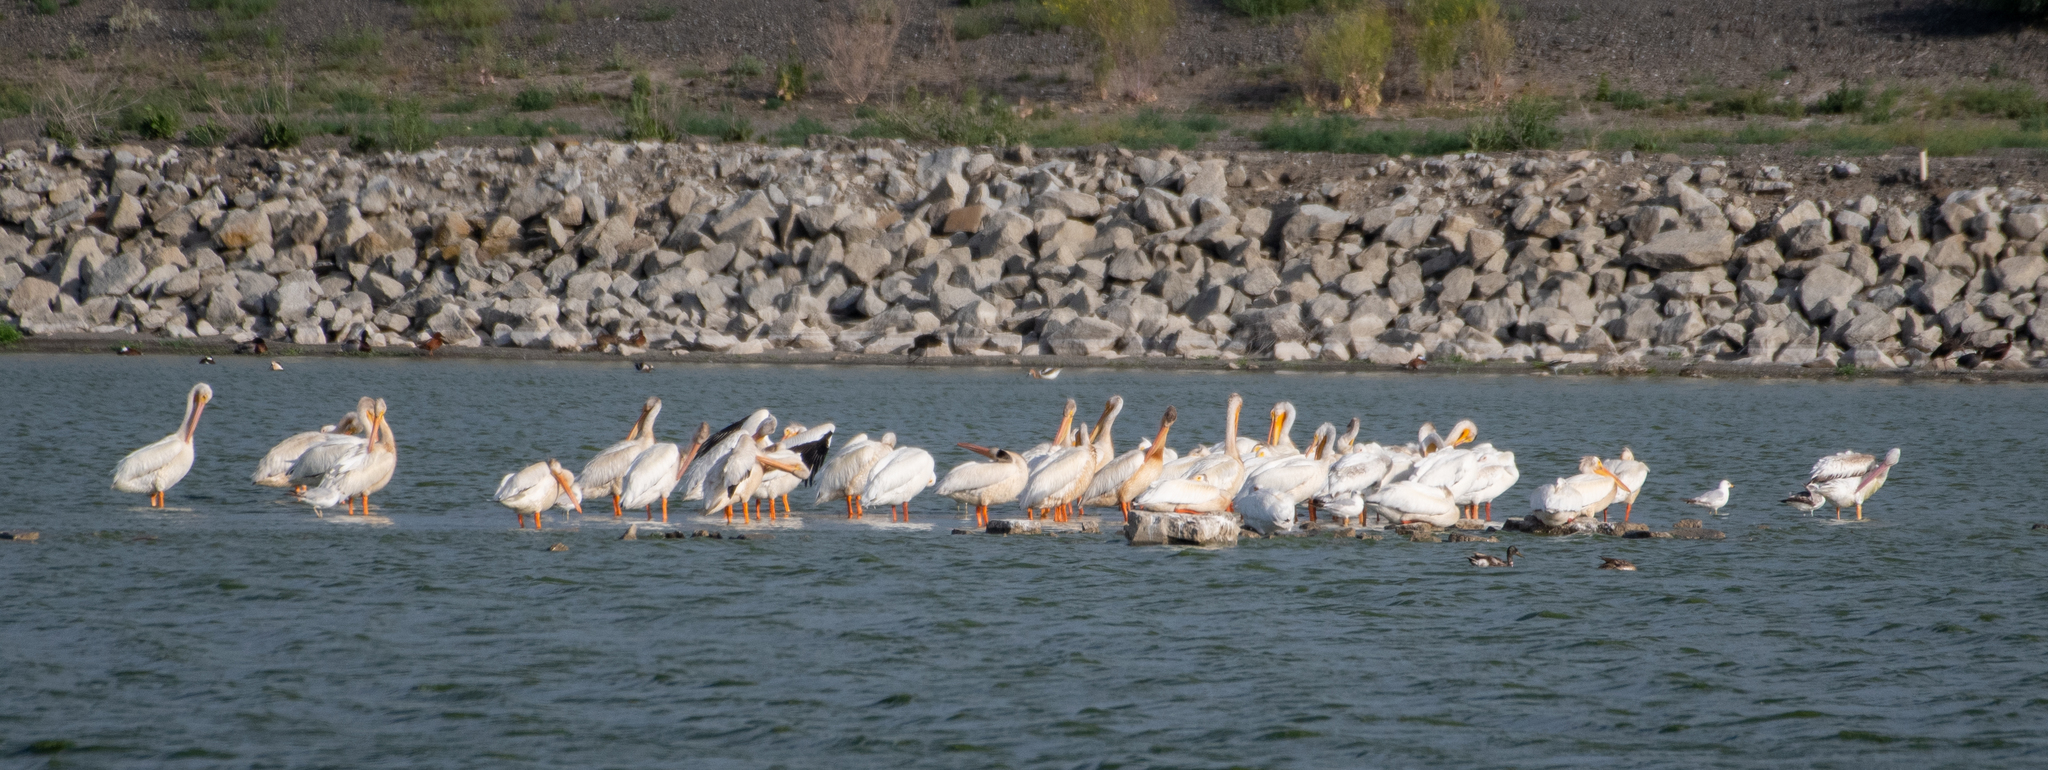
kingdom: Animalia
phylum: Chordata
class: Aves
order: Pelecaniformes
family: Pelecanidae
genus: Pelecanus
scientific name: Pelecanus erythrorhynchos
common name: American white pelican
